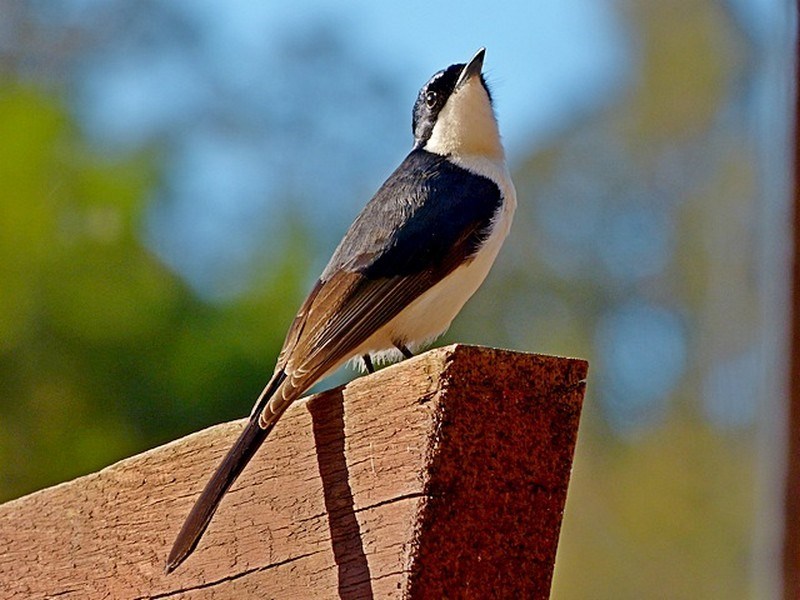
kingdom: Animalia
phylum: Chordata
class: Aves
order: Passeriformes
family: Monarchidae
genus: Myiagra
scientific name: Myiagra inquieta
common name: Restless flycatcher
